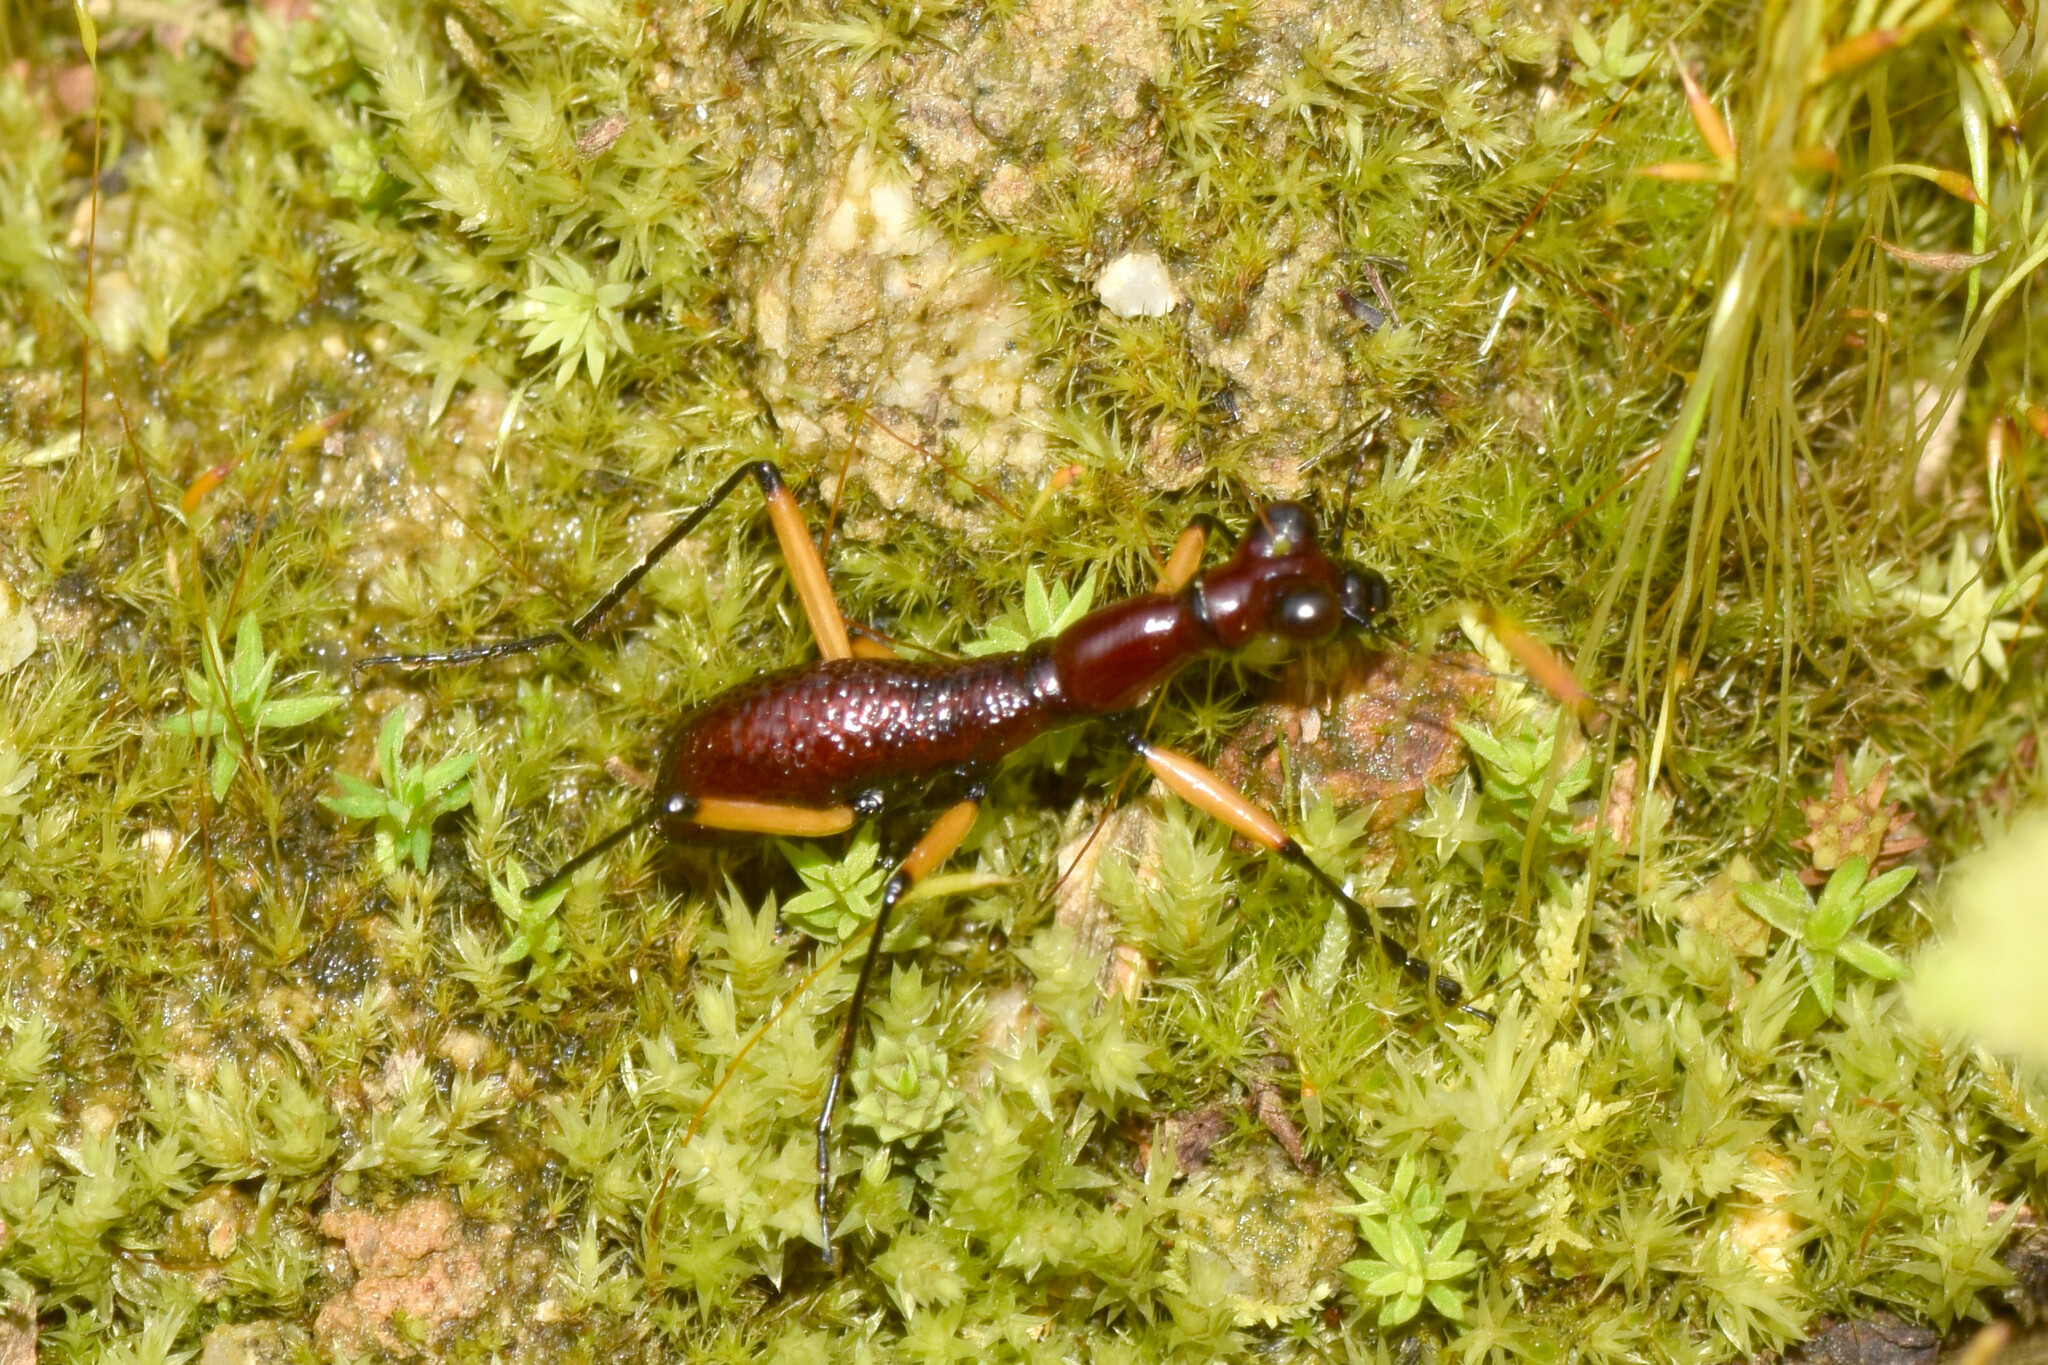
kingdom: Animalia
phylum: Arthropoda
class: Insecta
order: Coleoptera
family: Carabidae
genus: Tricondyla
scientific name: Tricondyla macrodera
